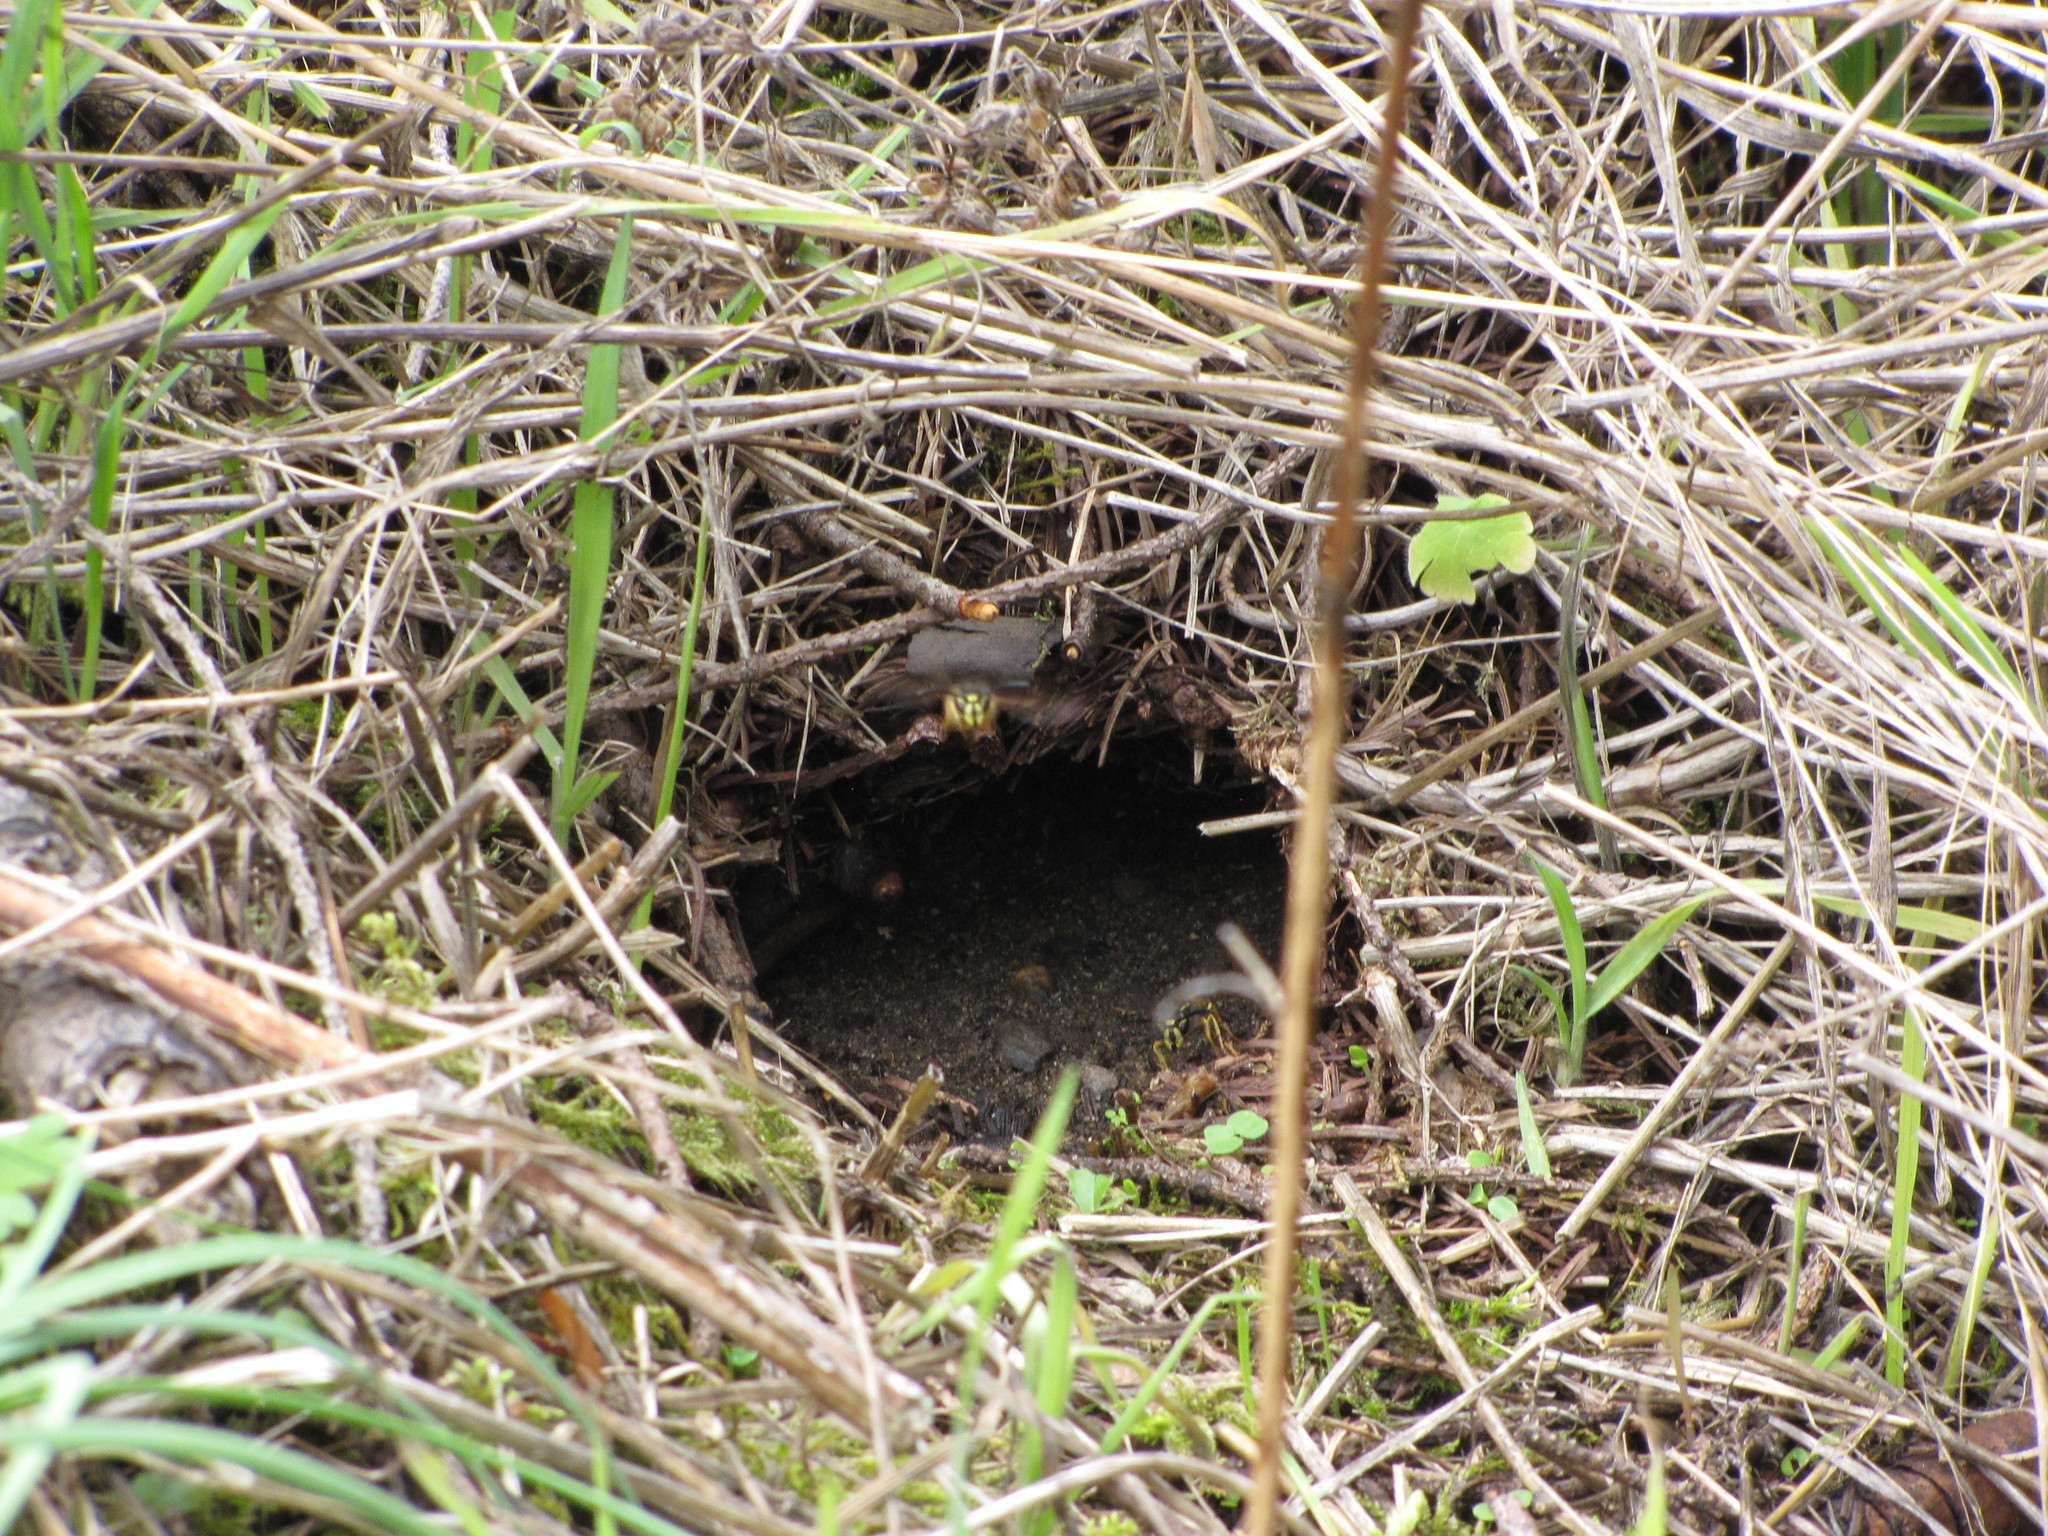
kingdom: Animalia
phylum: Arthropoda
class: Insecta
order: Hymenoptera
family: Vespidae
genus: Vespula
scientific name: Vespula
